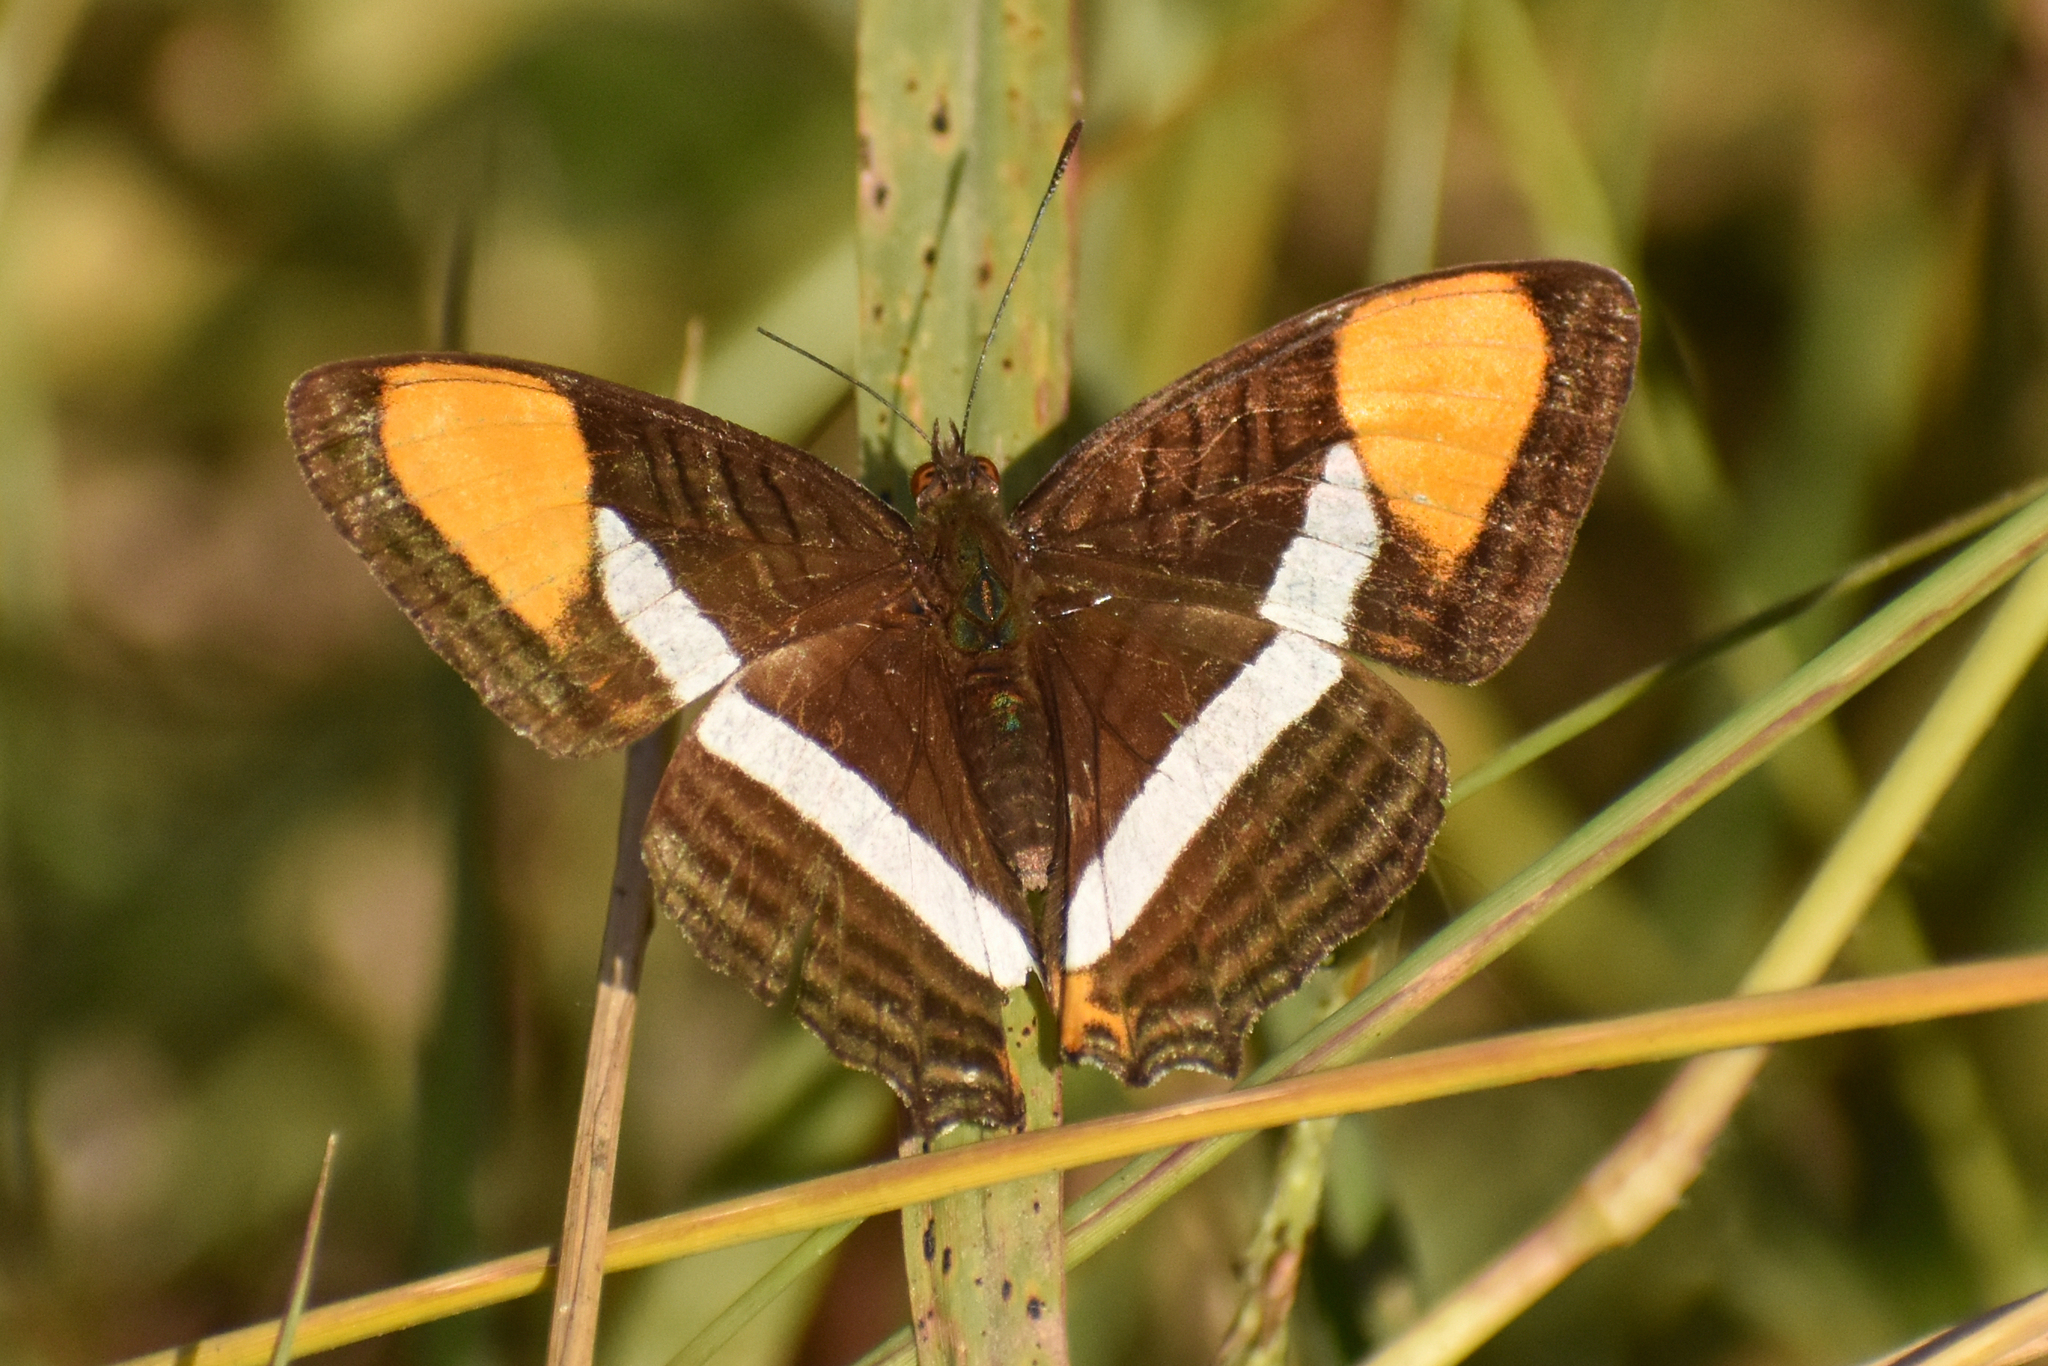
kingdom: Animalia
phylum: Arthropoda
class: Insecta
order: Lepidoptera
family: Nymphalidae
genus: Limenitis
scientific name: Limenitis syma
